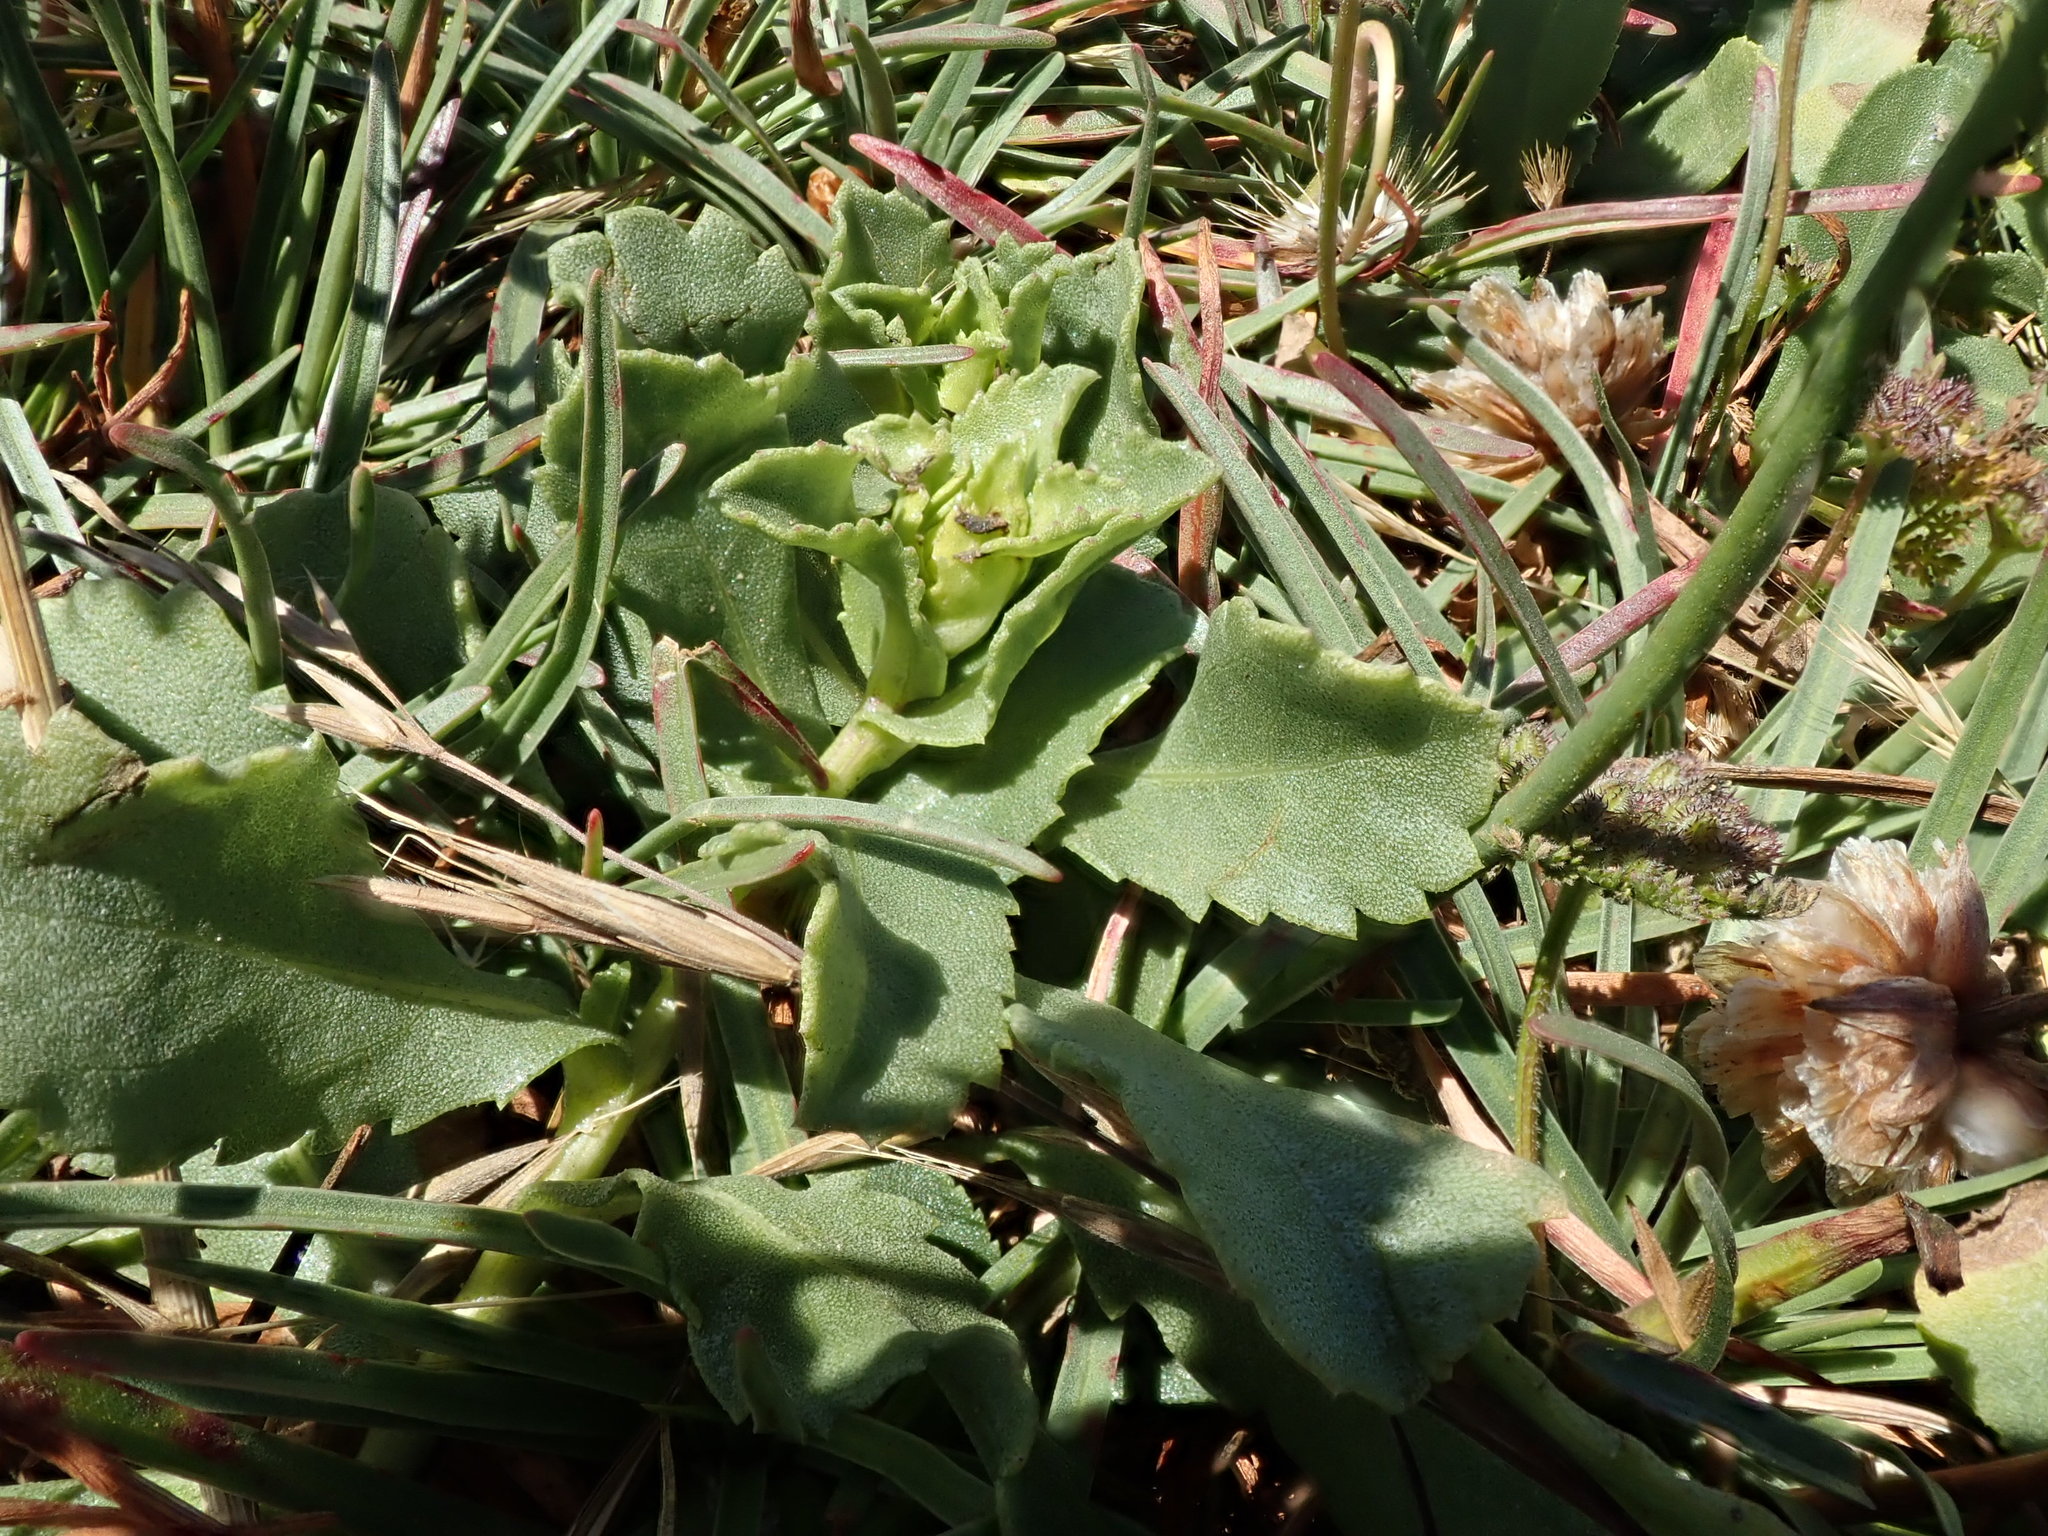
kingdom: Plantae
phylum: Tracheophyta
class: Magnoliopsida
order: Caryophyllales
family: Plumbaginaceae
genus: Armeria
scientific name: Armeria maritima
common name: Thrift
